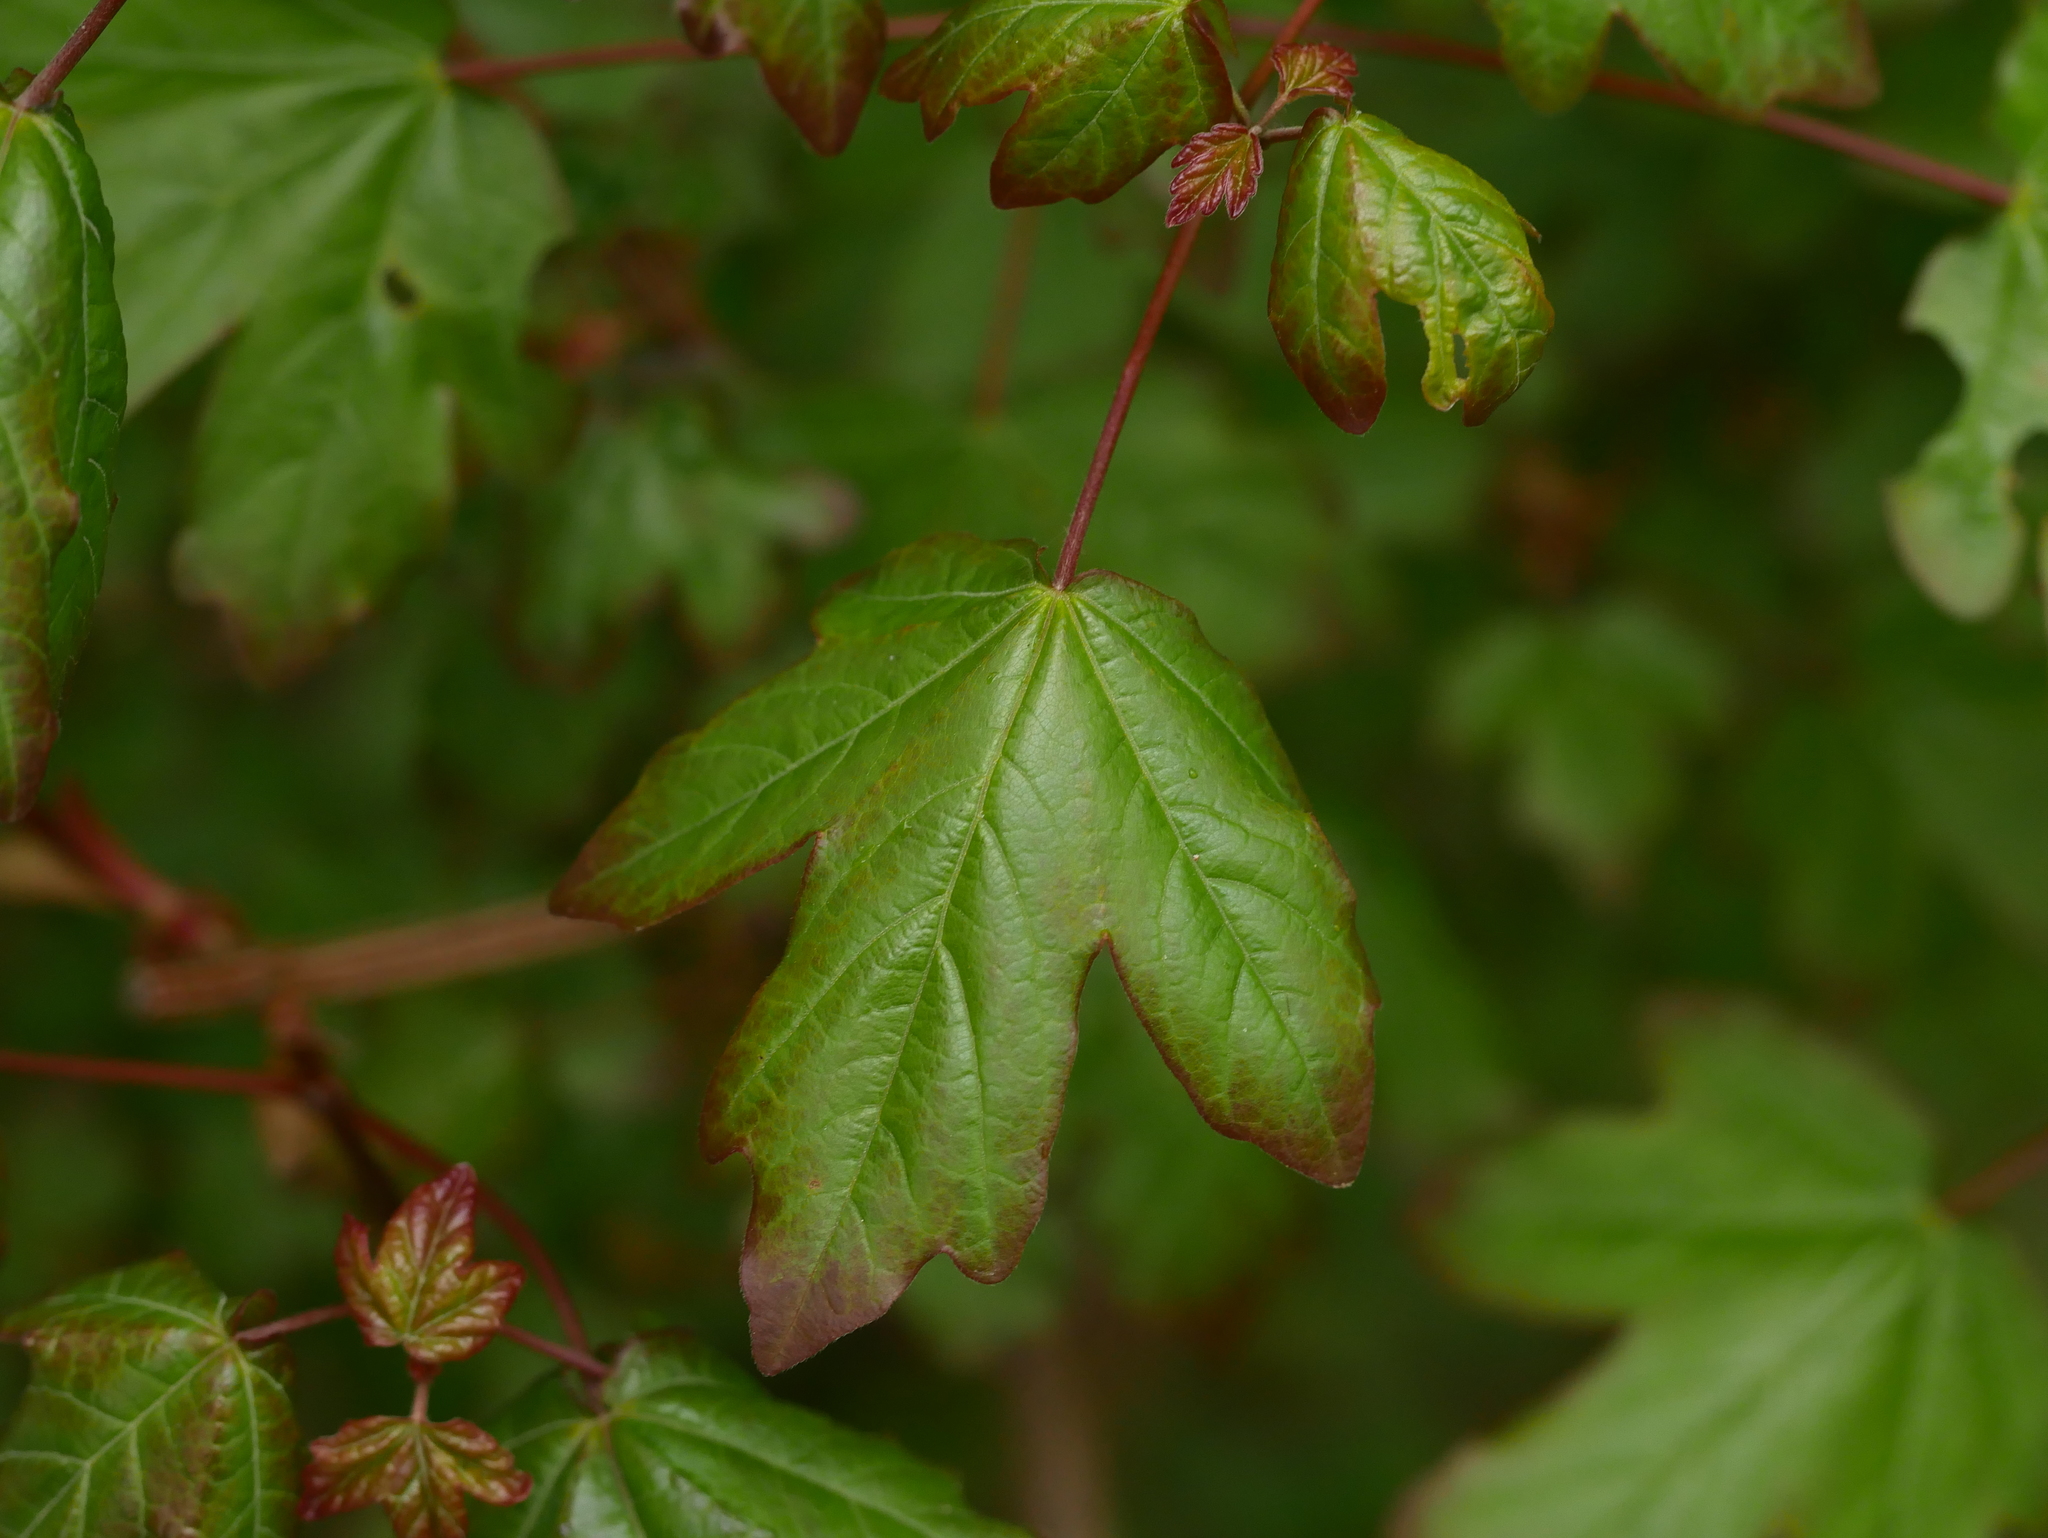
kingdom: Plantae
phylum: Tracheophyta
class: Magnoliopsida
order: Sapindales
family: Sapindaceae
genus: Acer
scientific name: Acer campestre
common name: Field maple
